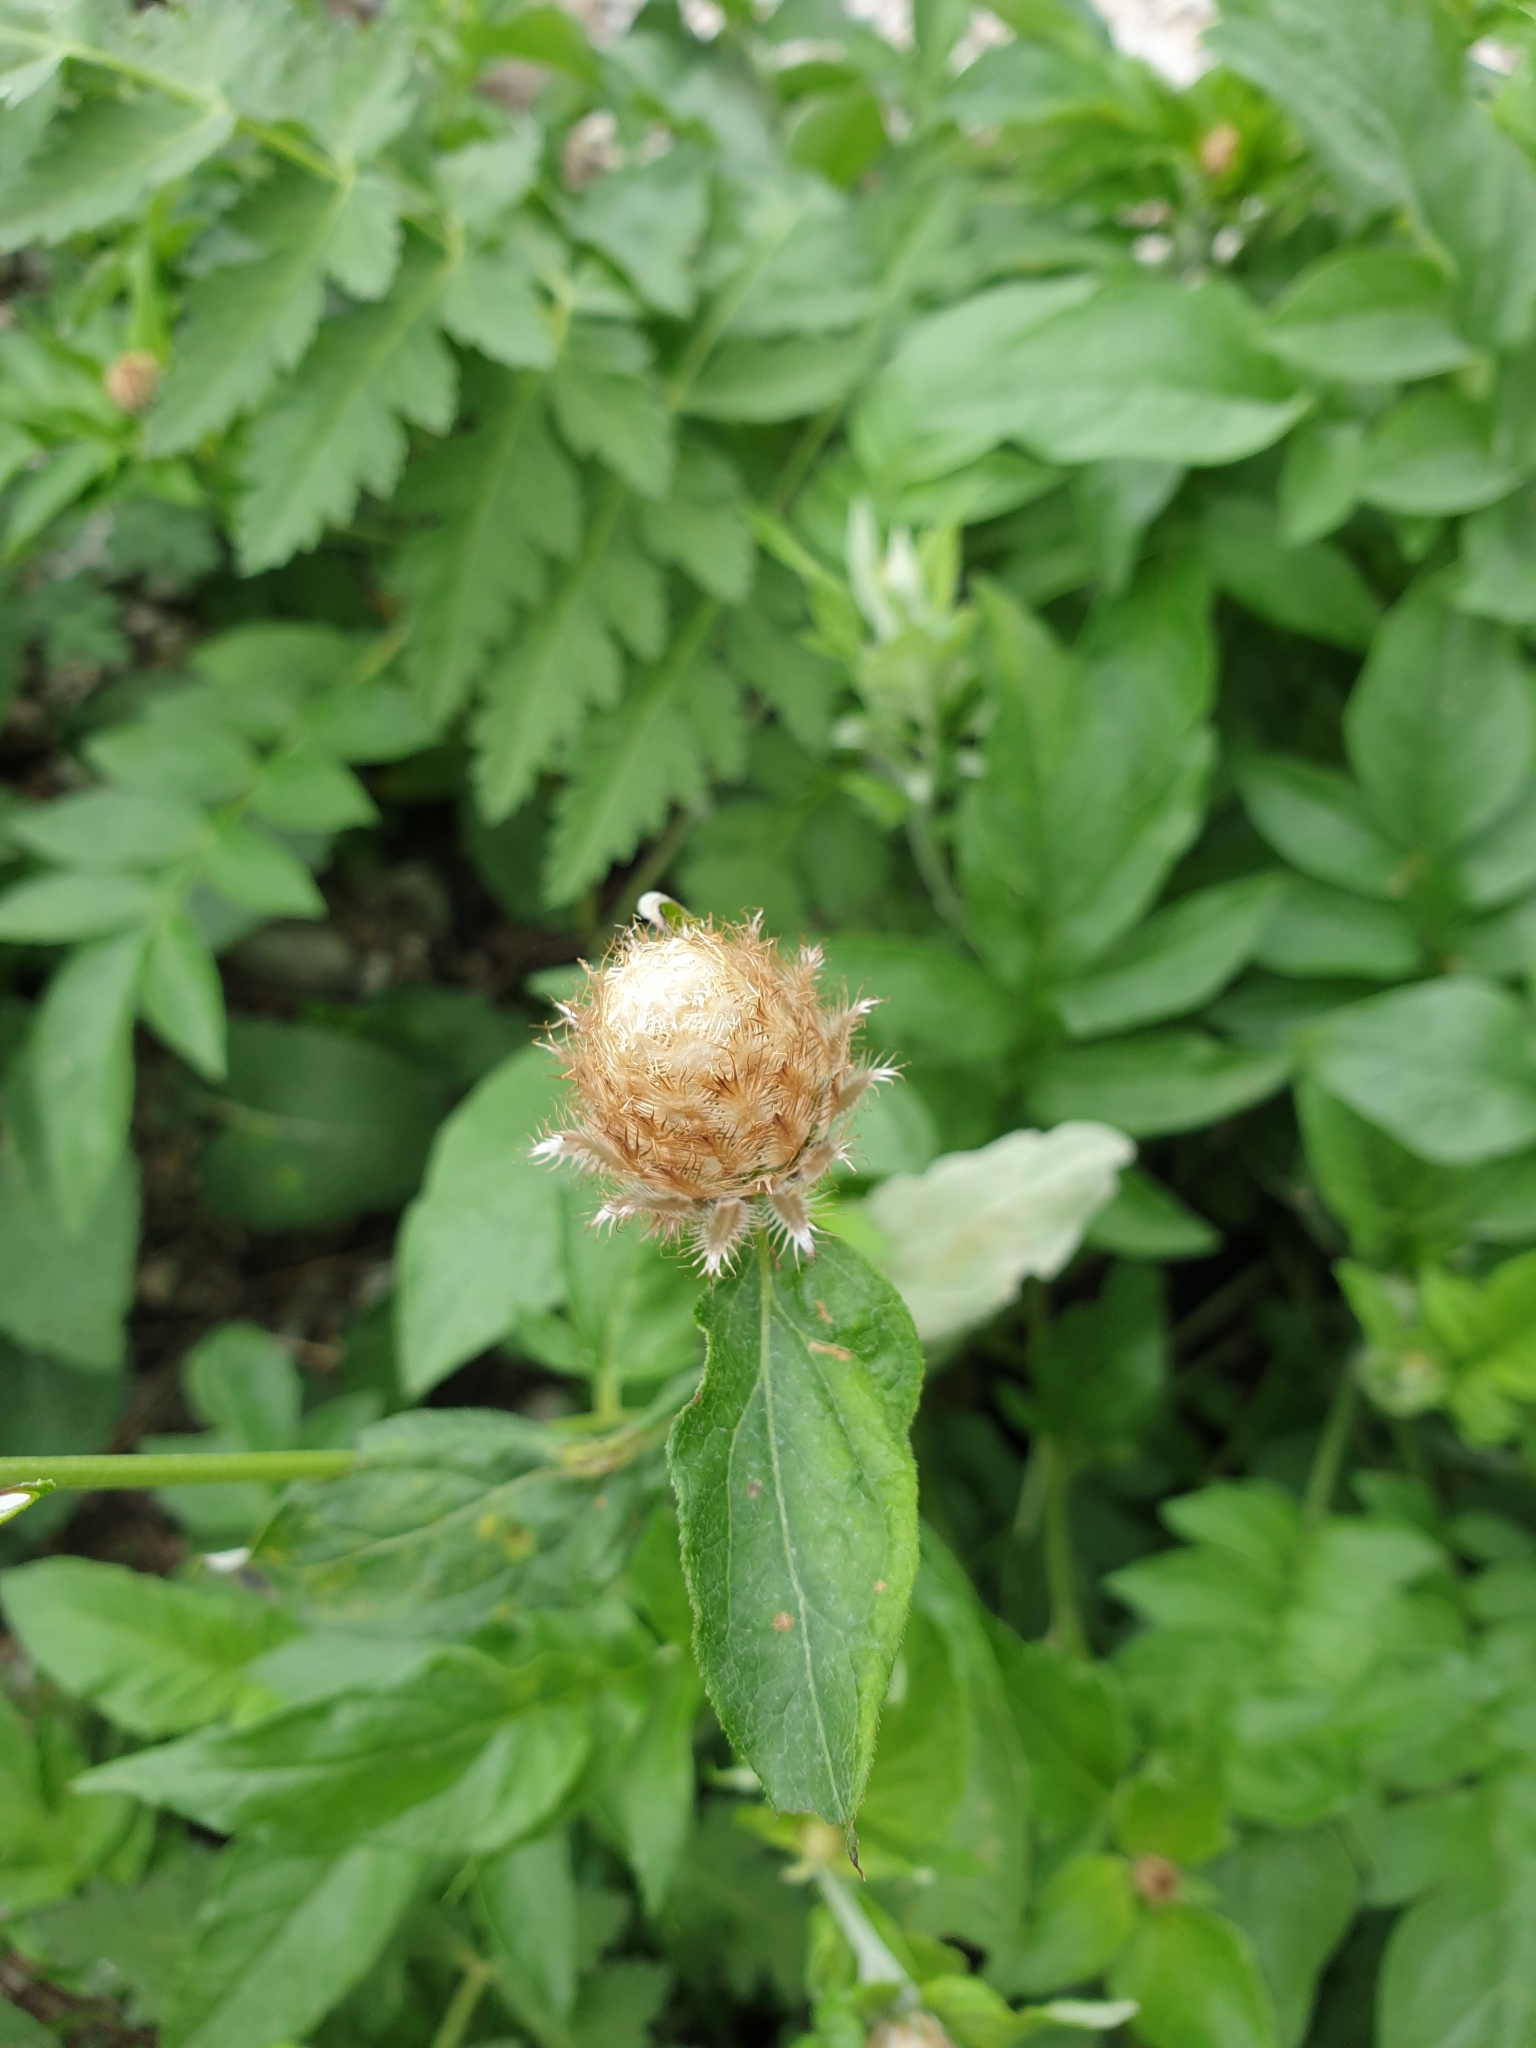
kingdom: Plantae
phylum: Tracheophyta
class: Magnoliopsida
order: Asterales
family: Asteraceae
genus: Psephellus
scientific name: Psephellus daghestanicus
